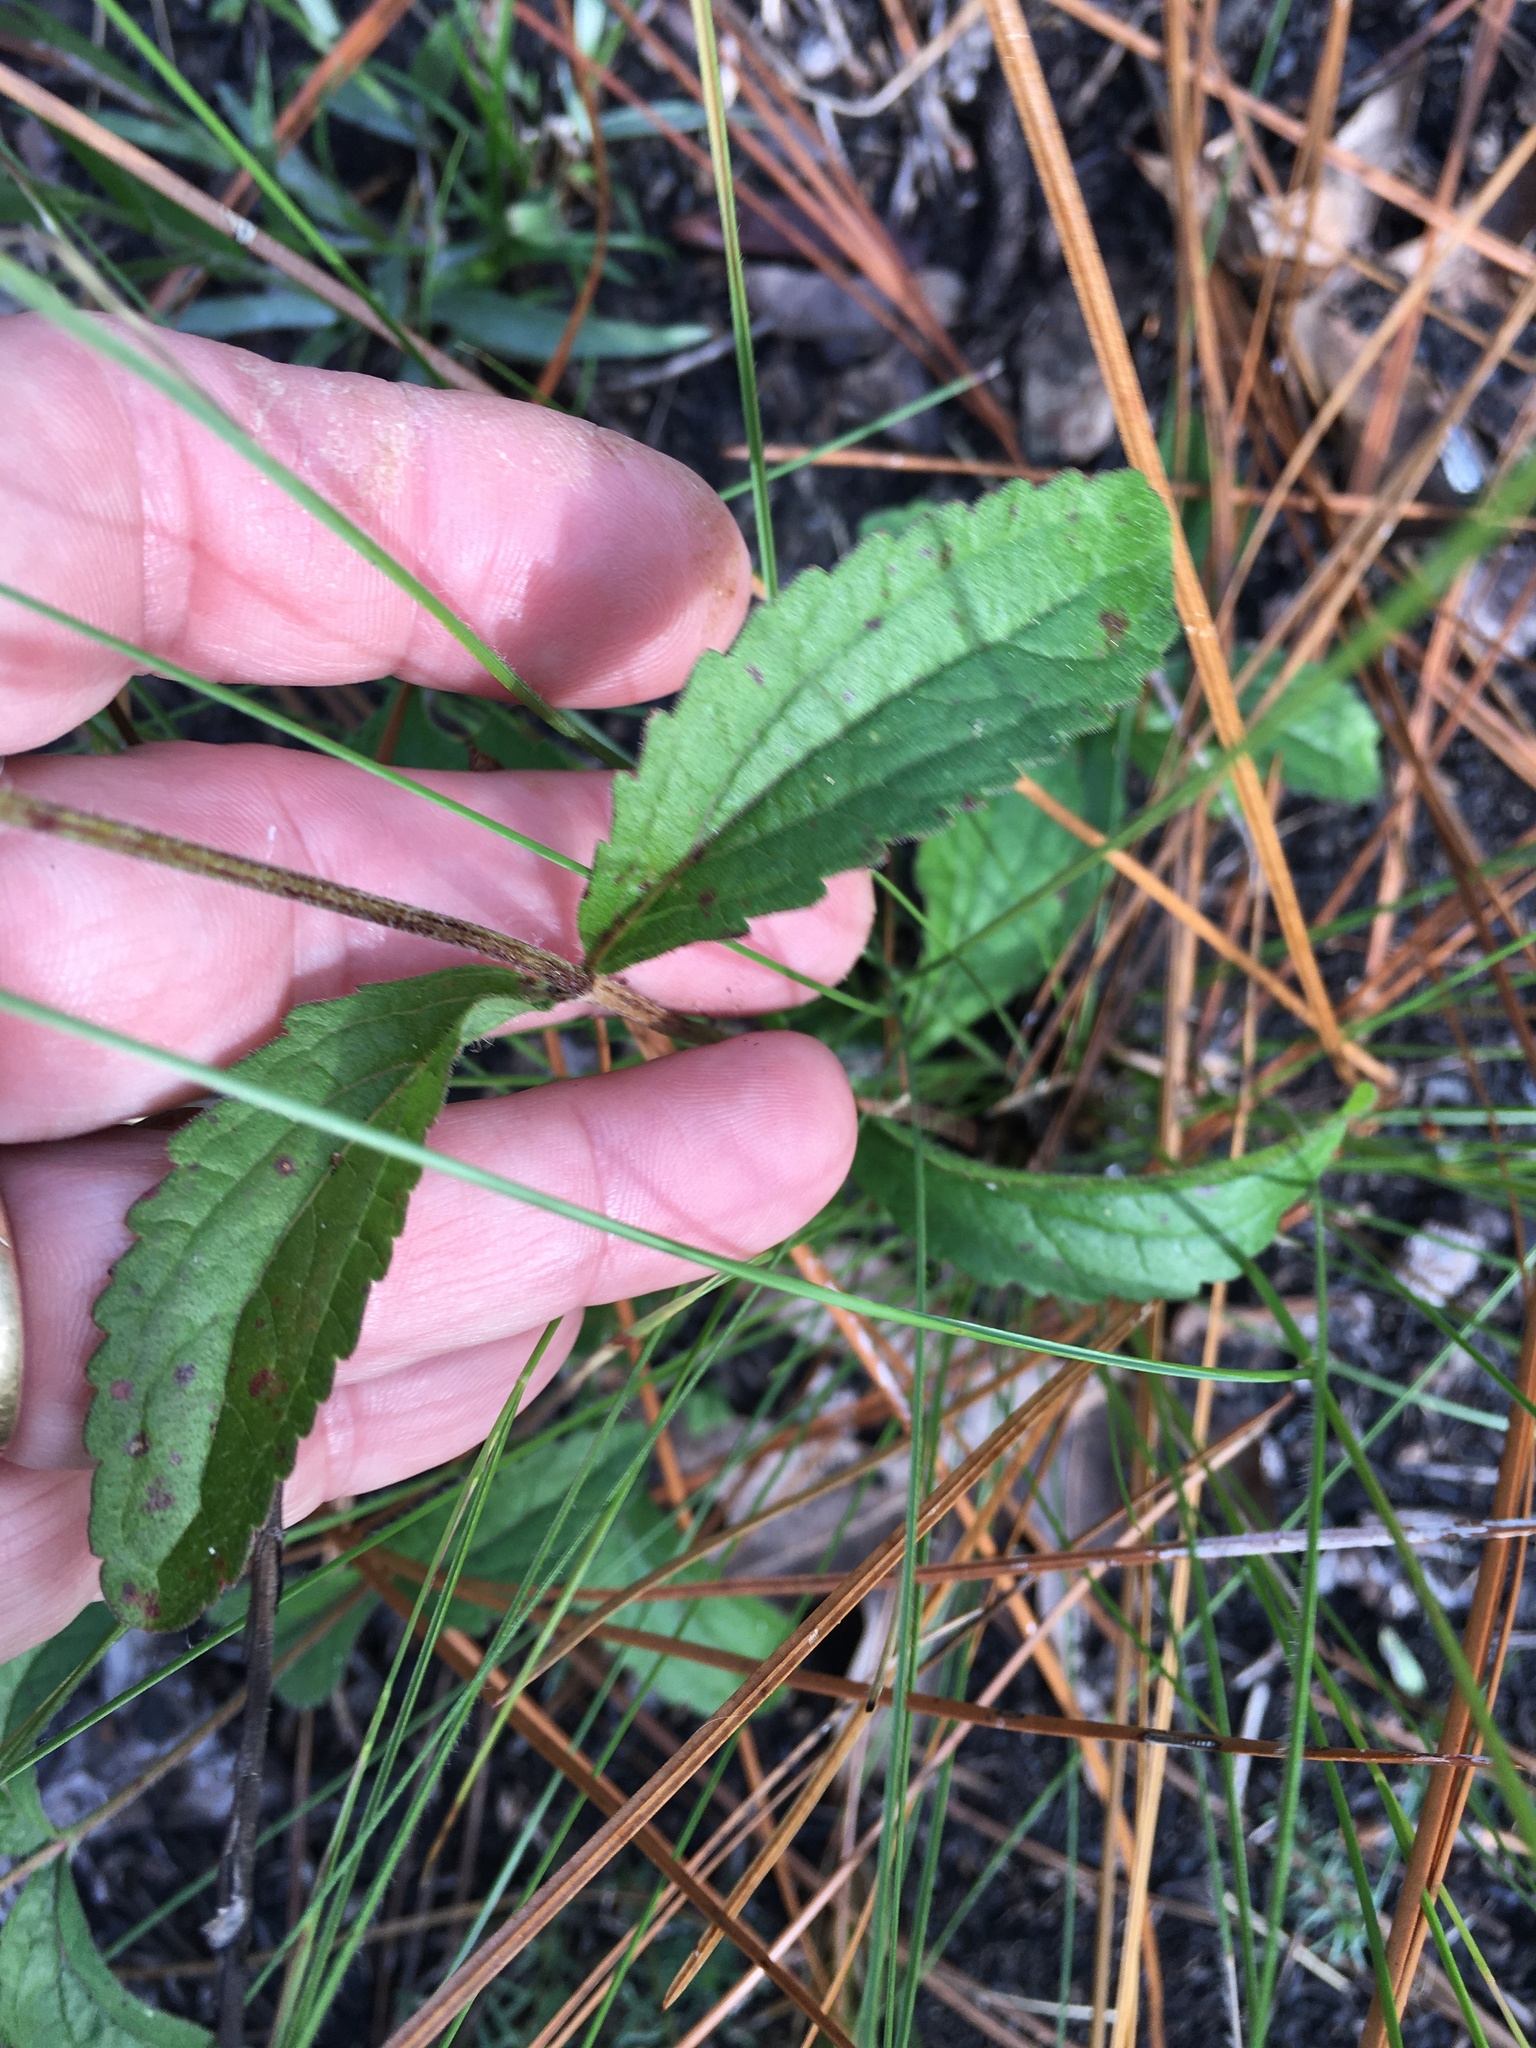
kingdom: Plantae
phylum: Tracheophyta
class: Magnoliopsida
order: Asterales
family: Asteraceae
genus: Eupatorium
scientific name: Eupatorium album
